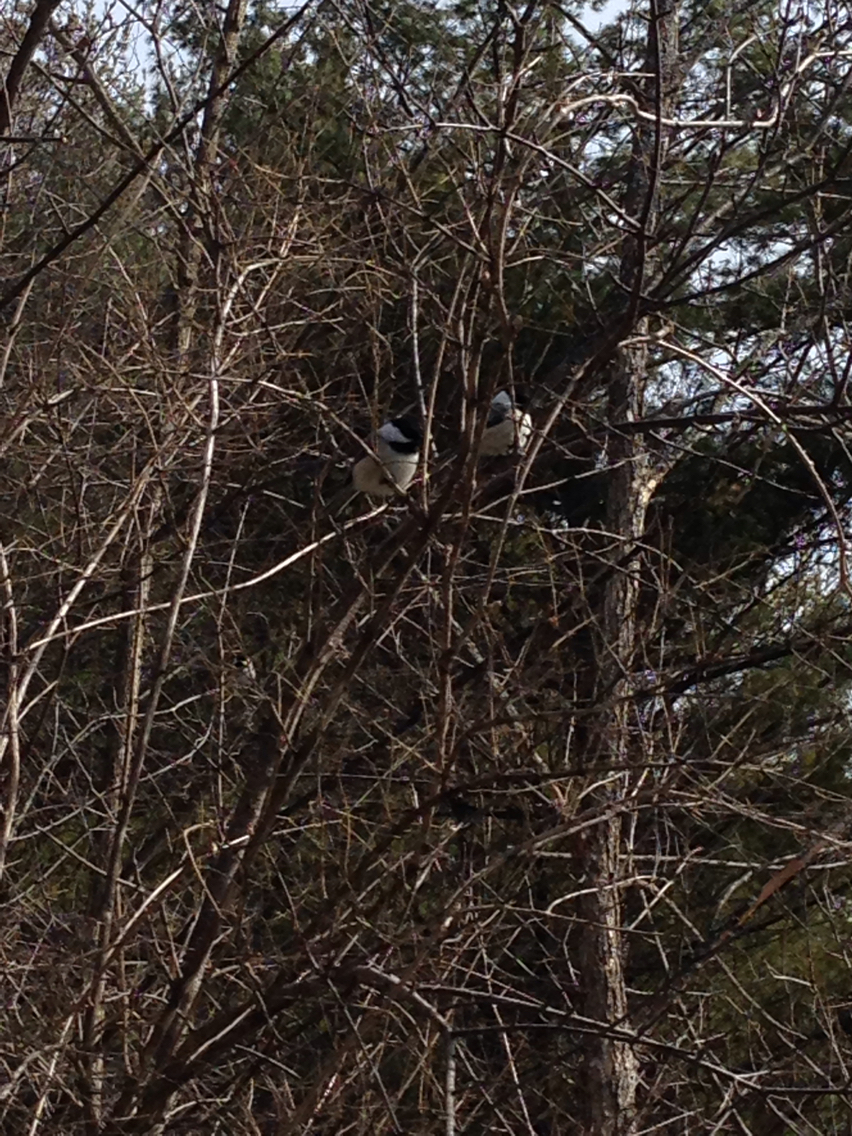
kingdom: Animalia
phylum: Chordata
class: Aves
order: Passeriformes
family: Paridae
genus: Poecile
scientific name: Poecile atricapillus
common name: Black-capped chickadee
